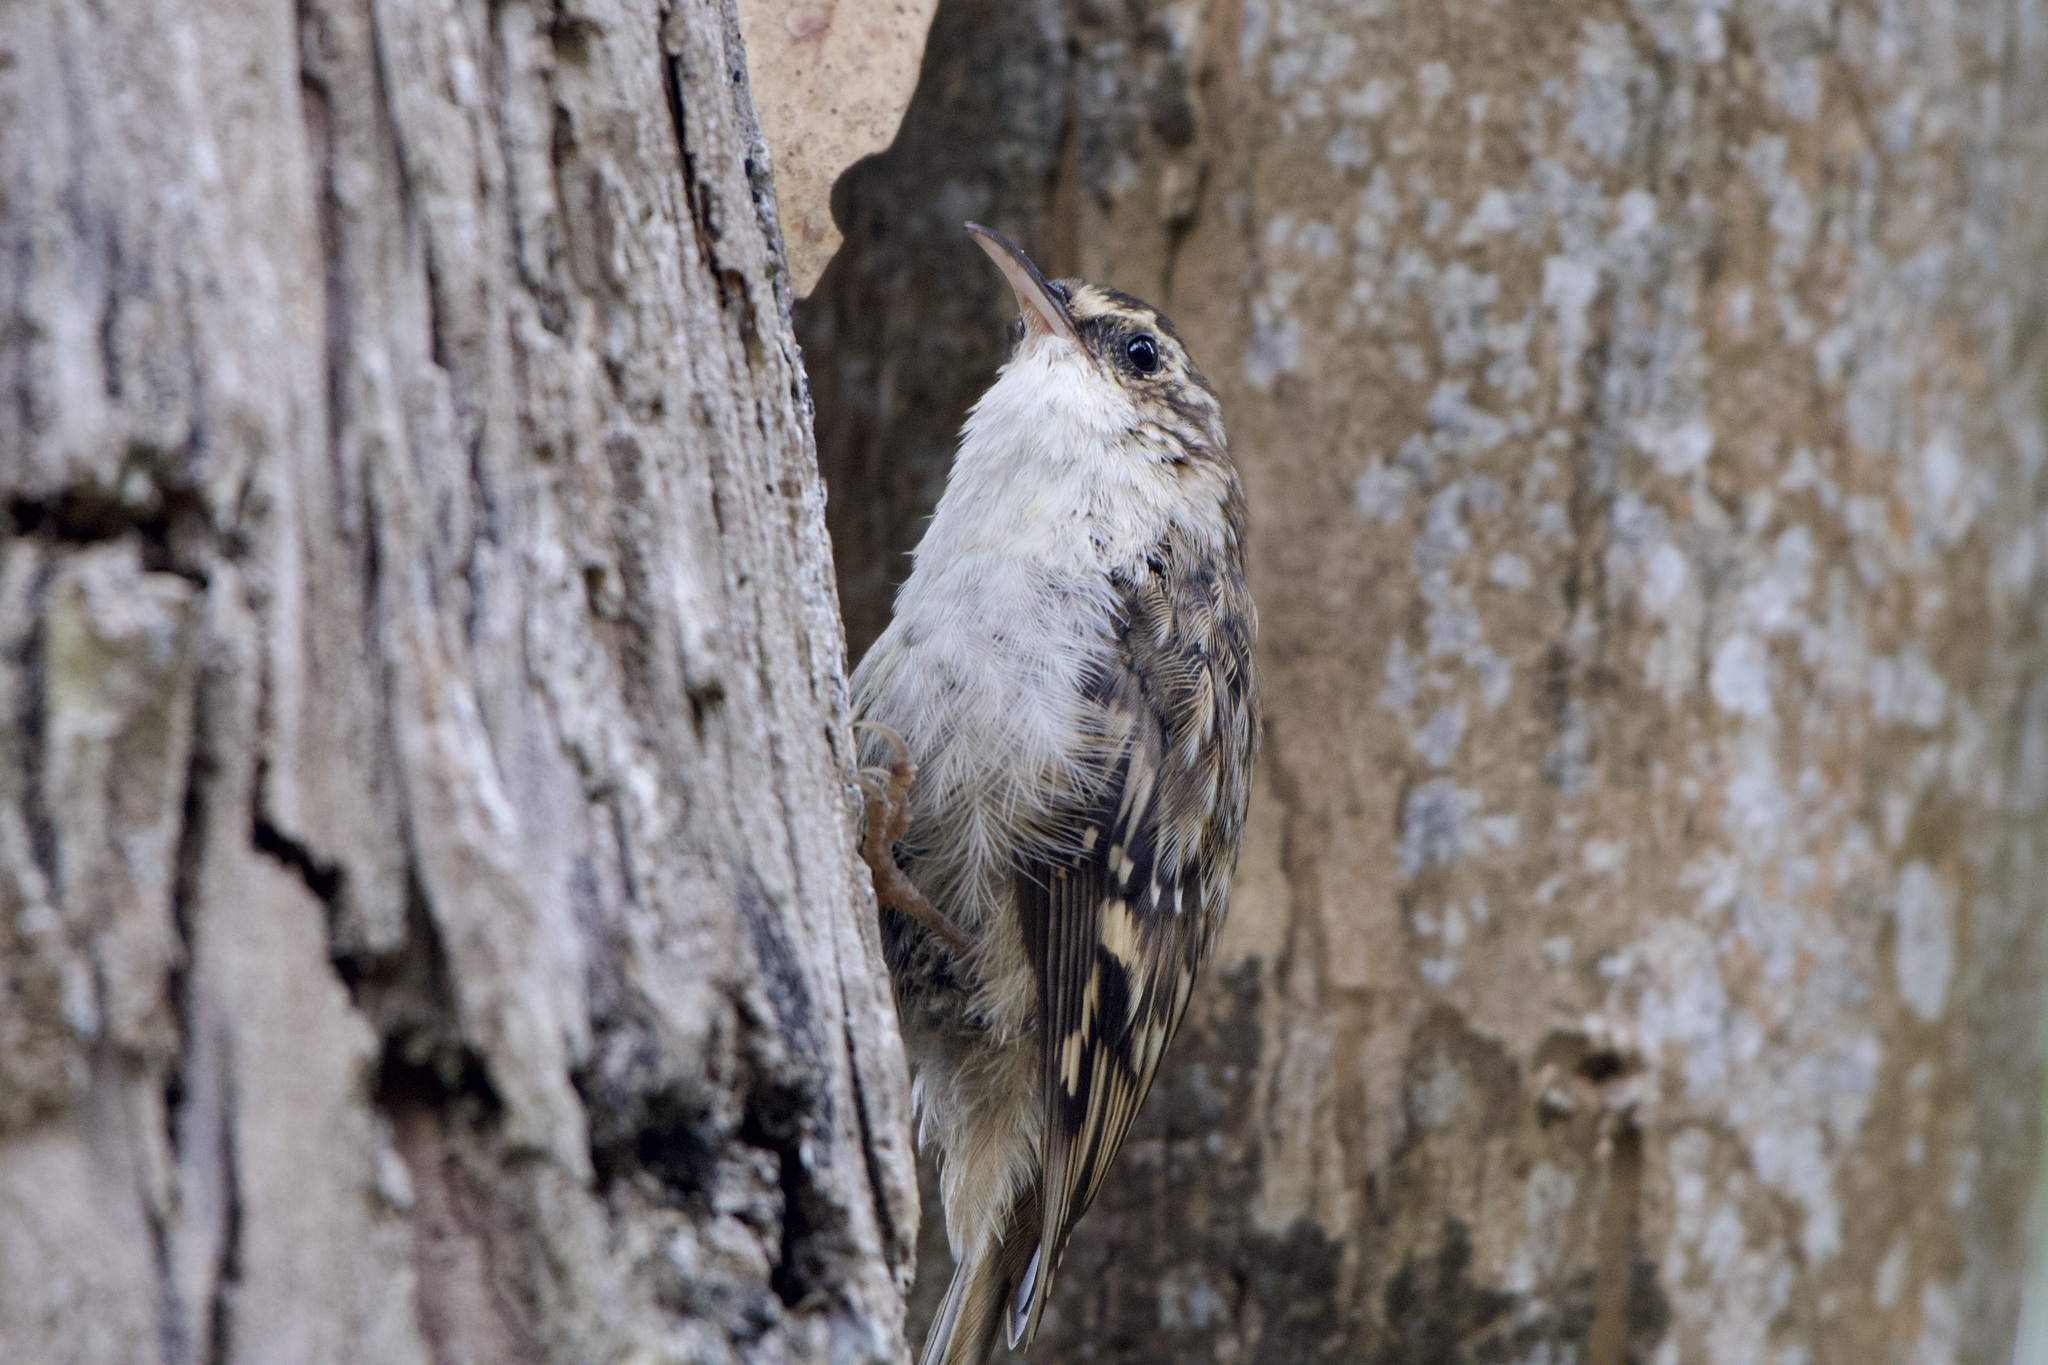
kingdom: Animalia
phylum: Chordata
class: Aves
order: Passeriformes
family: Certhiidae
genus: Certhia
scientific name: Certhia americana
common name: Brown creeper
